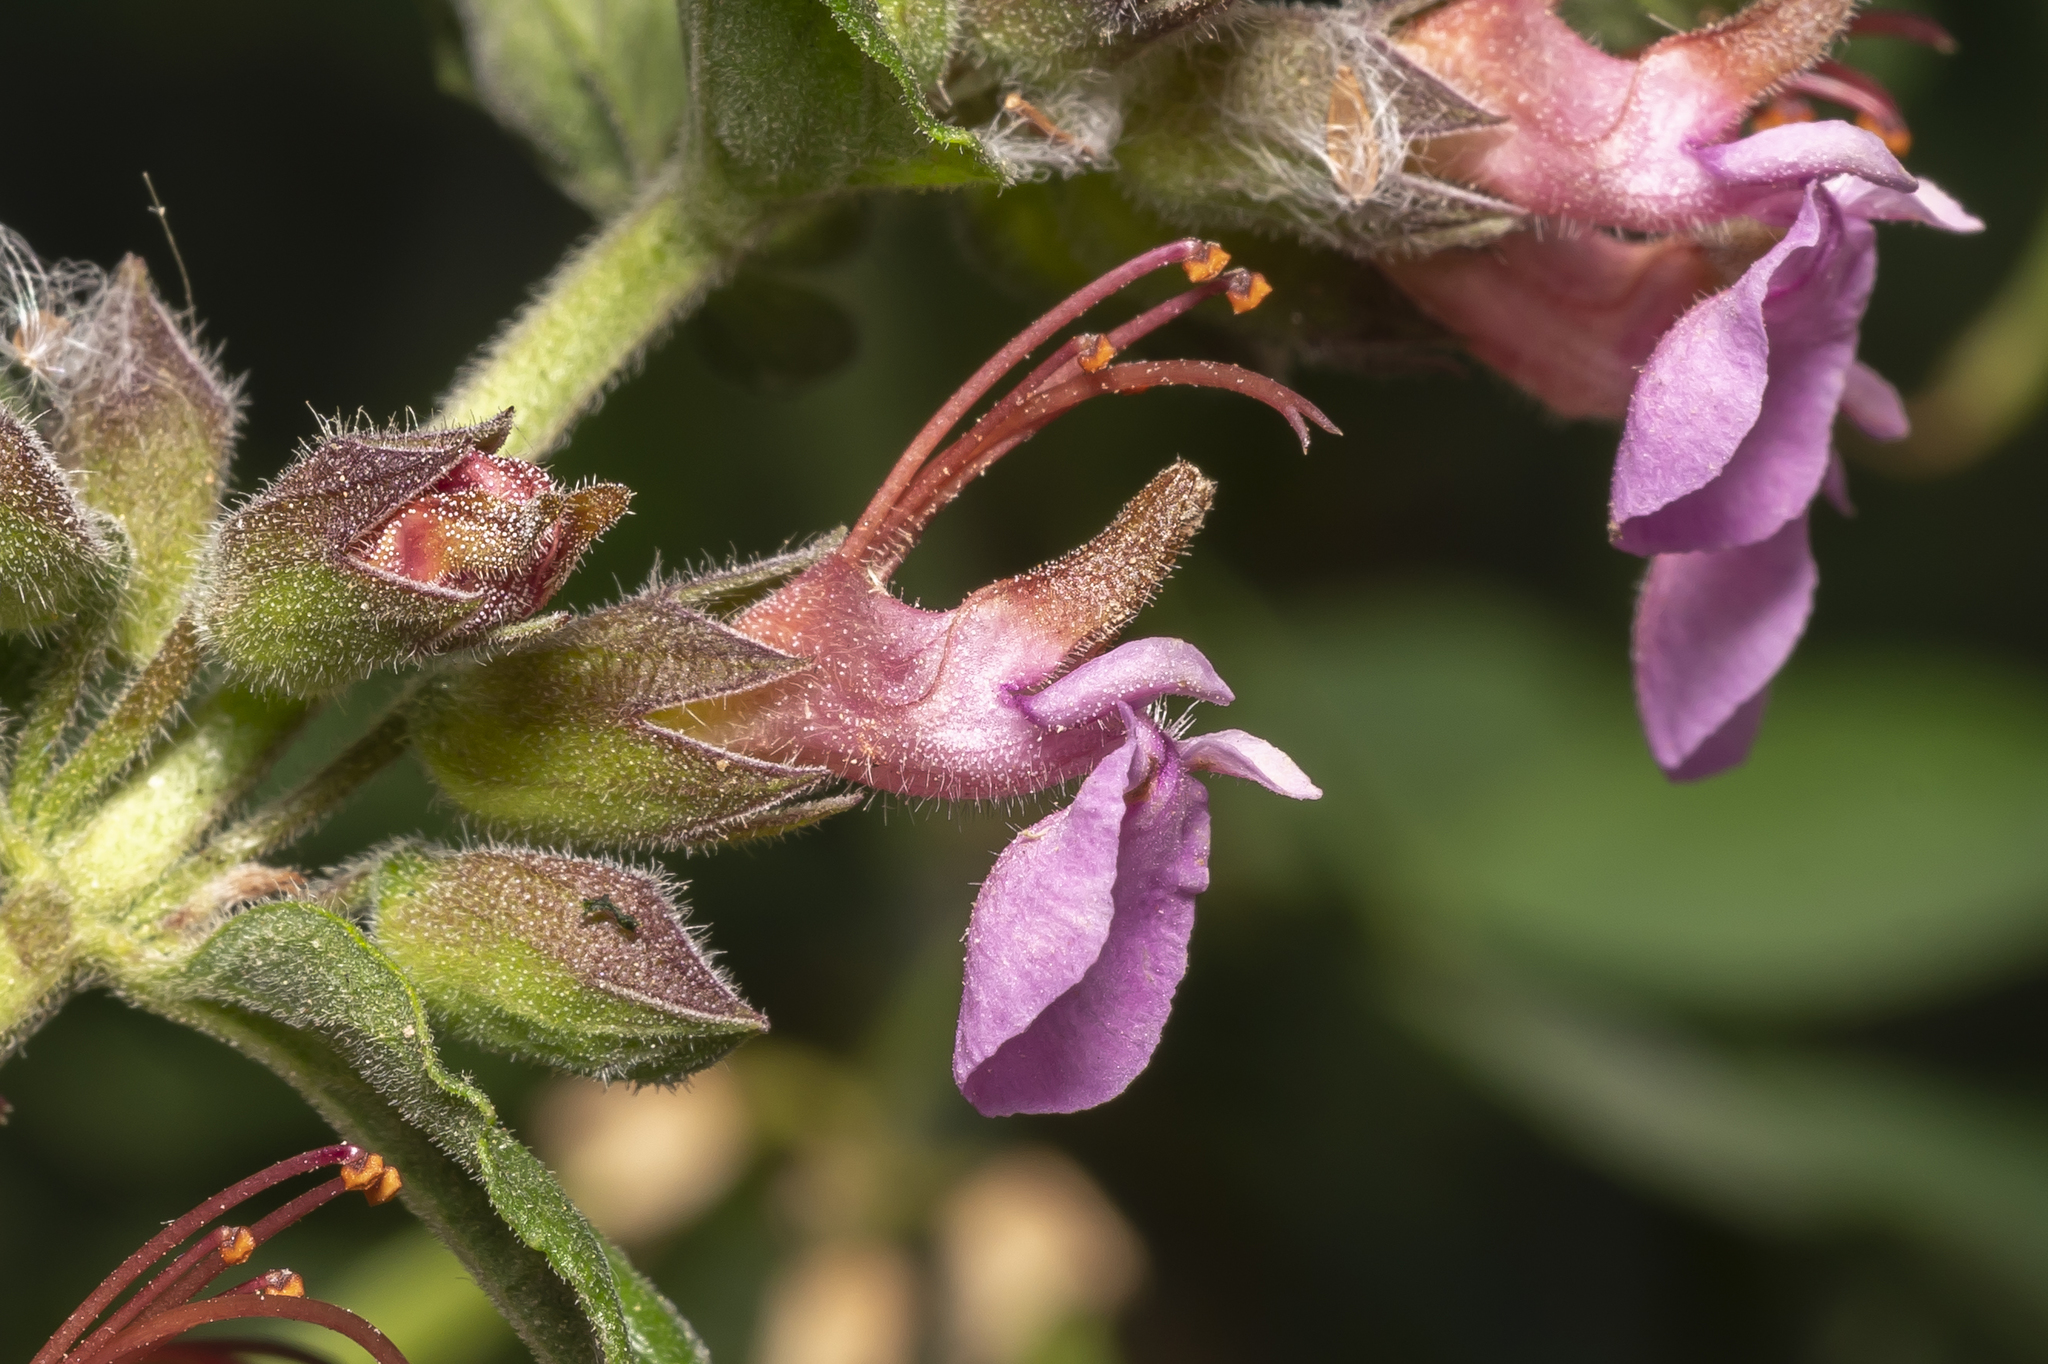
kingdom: Plantae
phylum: Tracheophyta
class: Magnoliopsida
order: Lamiales
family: Lamiaceae
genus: Teucrium
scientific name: Teucrium divaricatum
